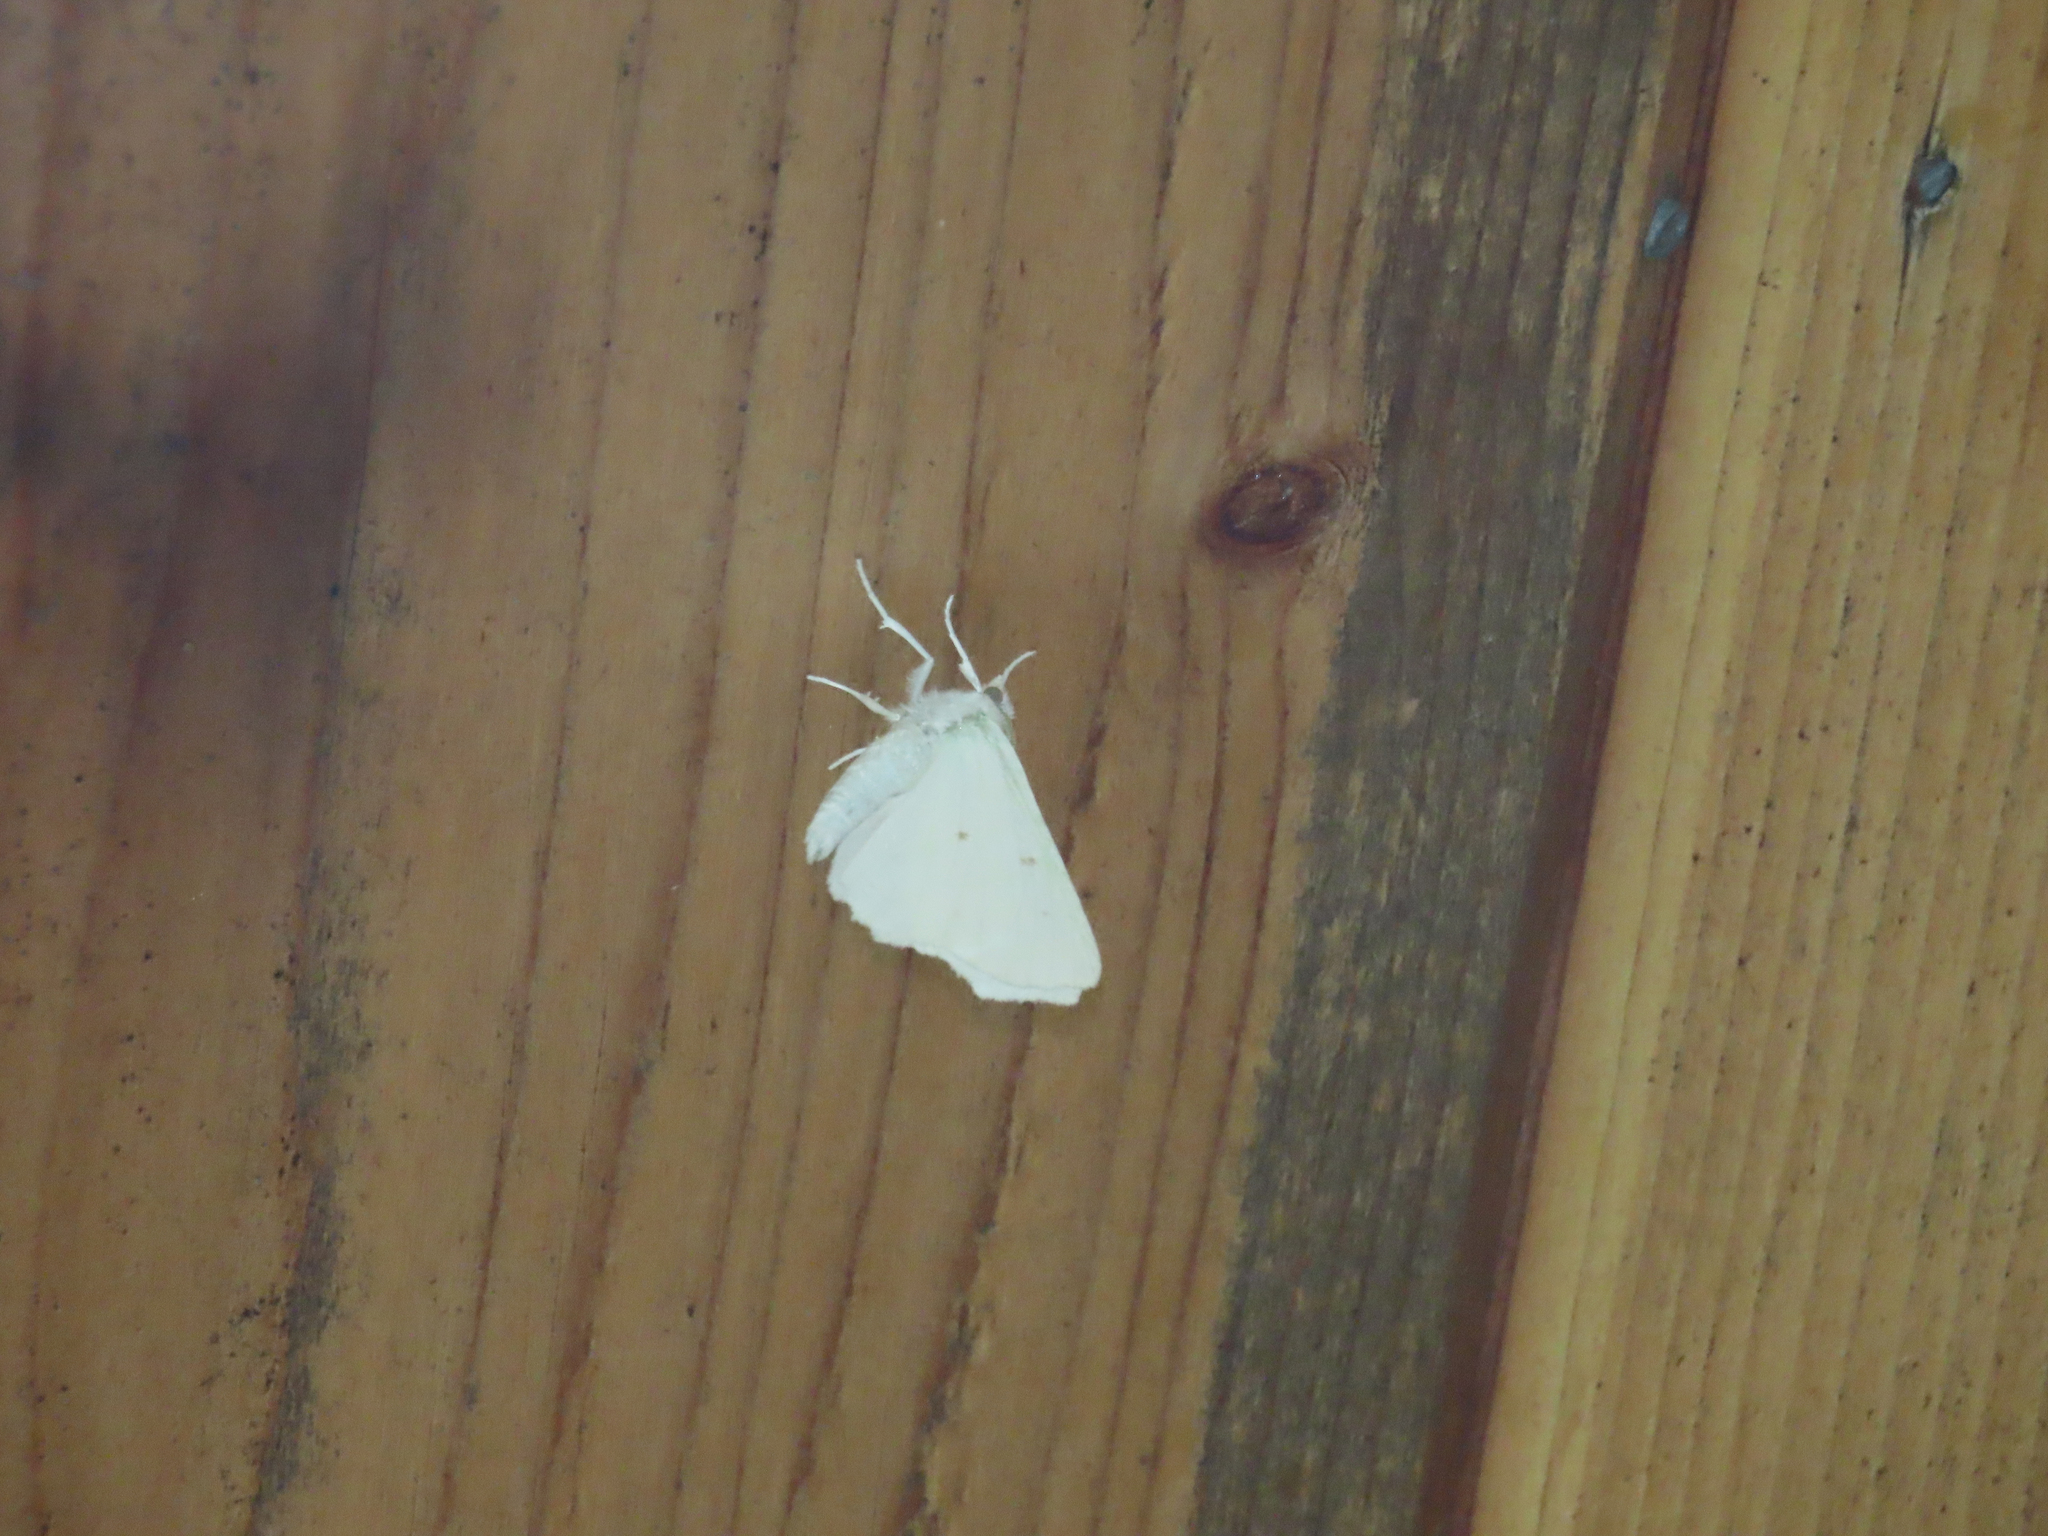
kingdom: Animalia
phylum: Arthropoda
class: Insecta
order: Lepidoptera
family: Geometridae
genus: Ennomos
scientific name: Ennomos subsignaria
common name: Elm spanworm
